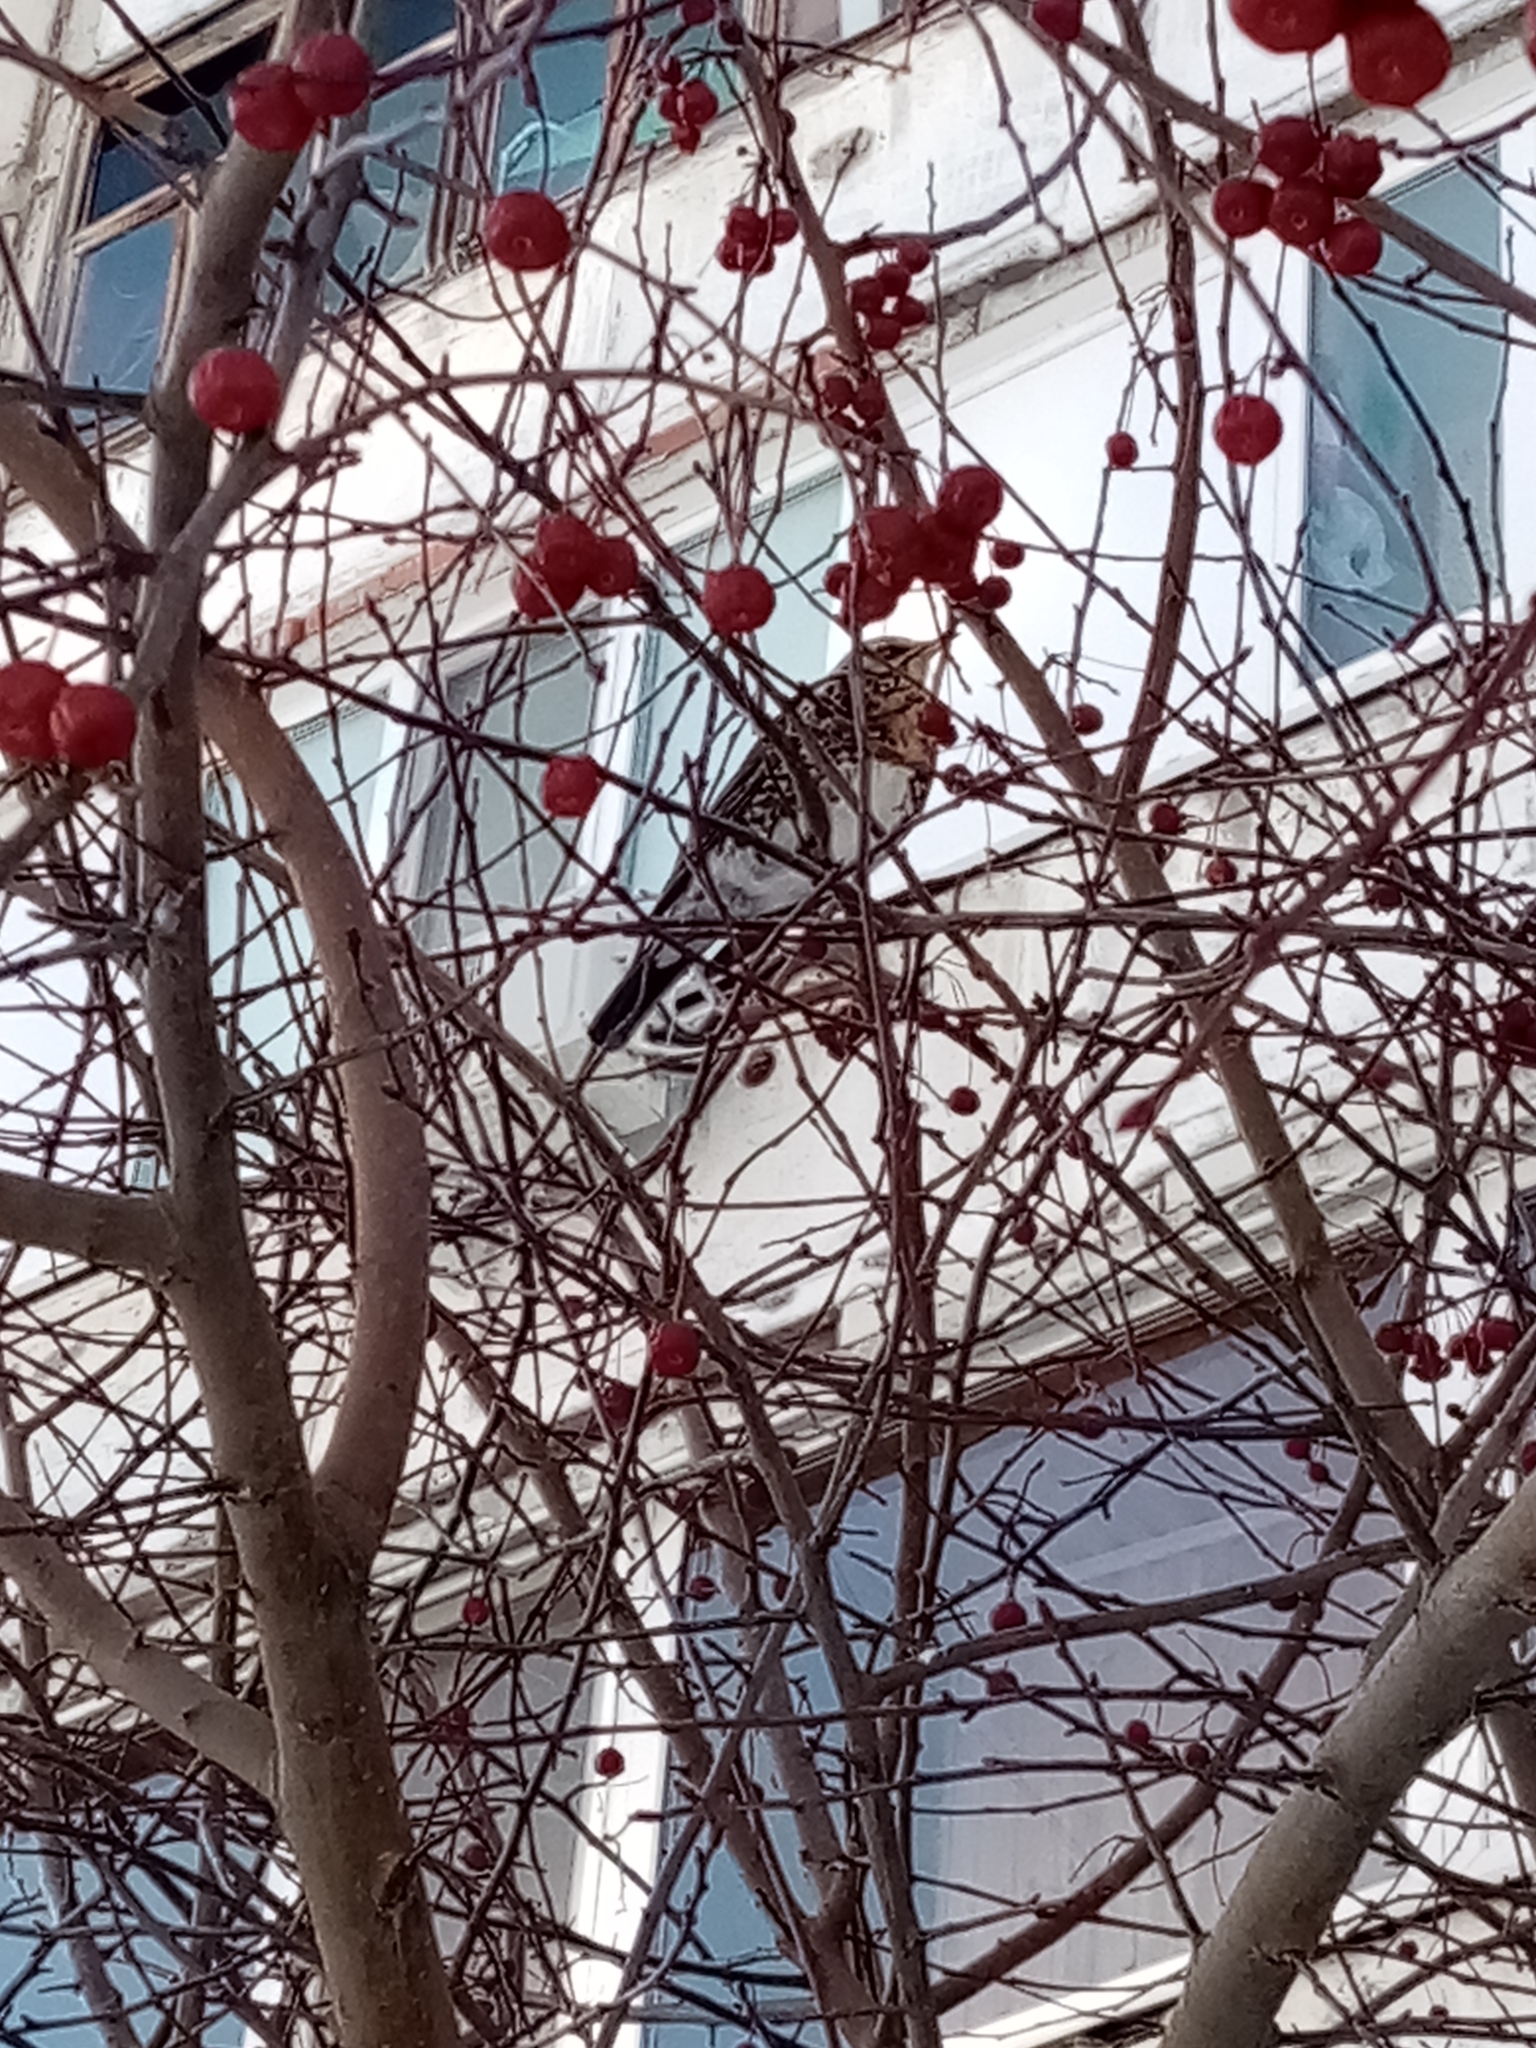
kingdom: Animalia
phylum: Chordata
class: Aves
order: Passeriformes
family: Turdidae
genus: Turdus
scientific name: Turdus pilaris
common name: Fieldfare
